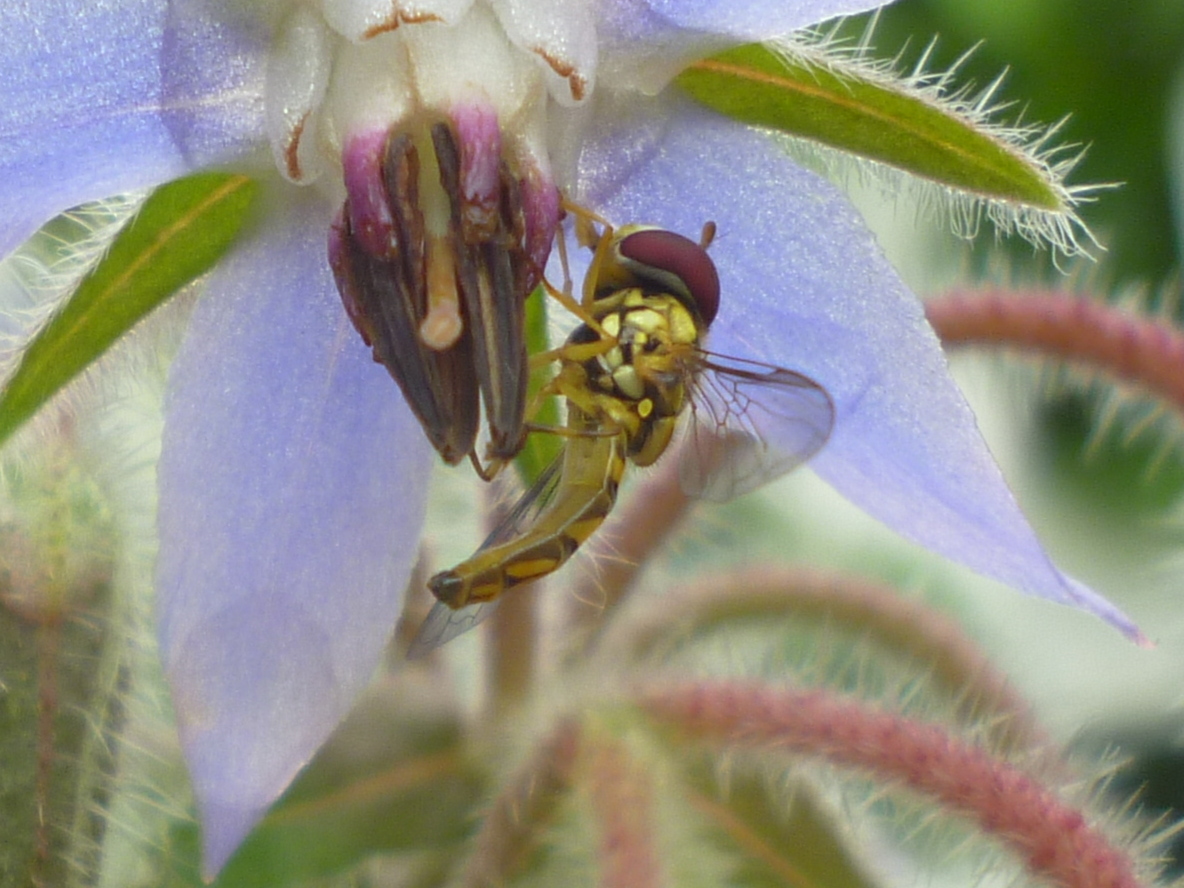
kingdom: Animalia
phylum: Arthropoda
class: Insecta
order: Diptera
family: Syrphidae
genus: Allograpta
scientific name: Allograpta obliqua
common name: Common oblique syrphid
